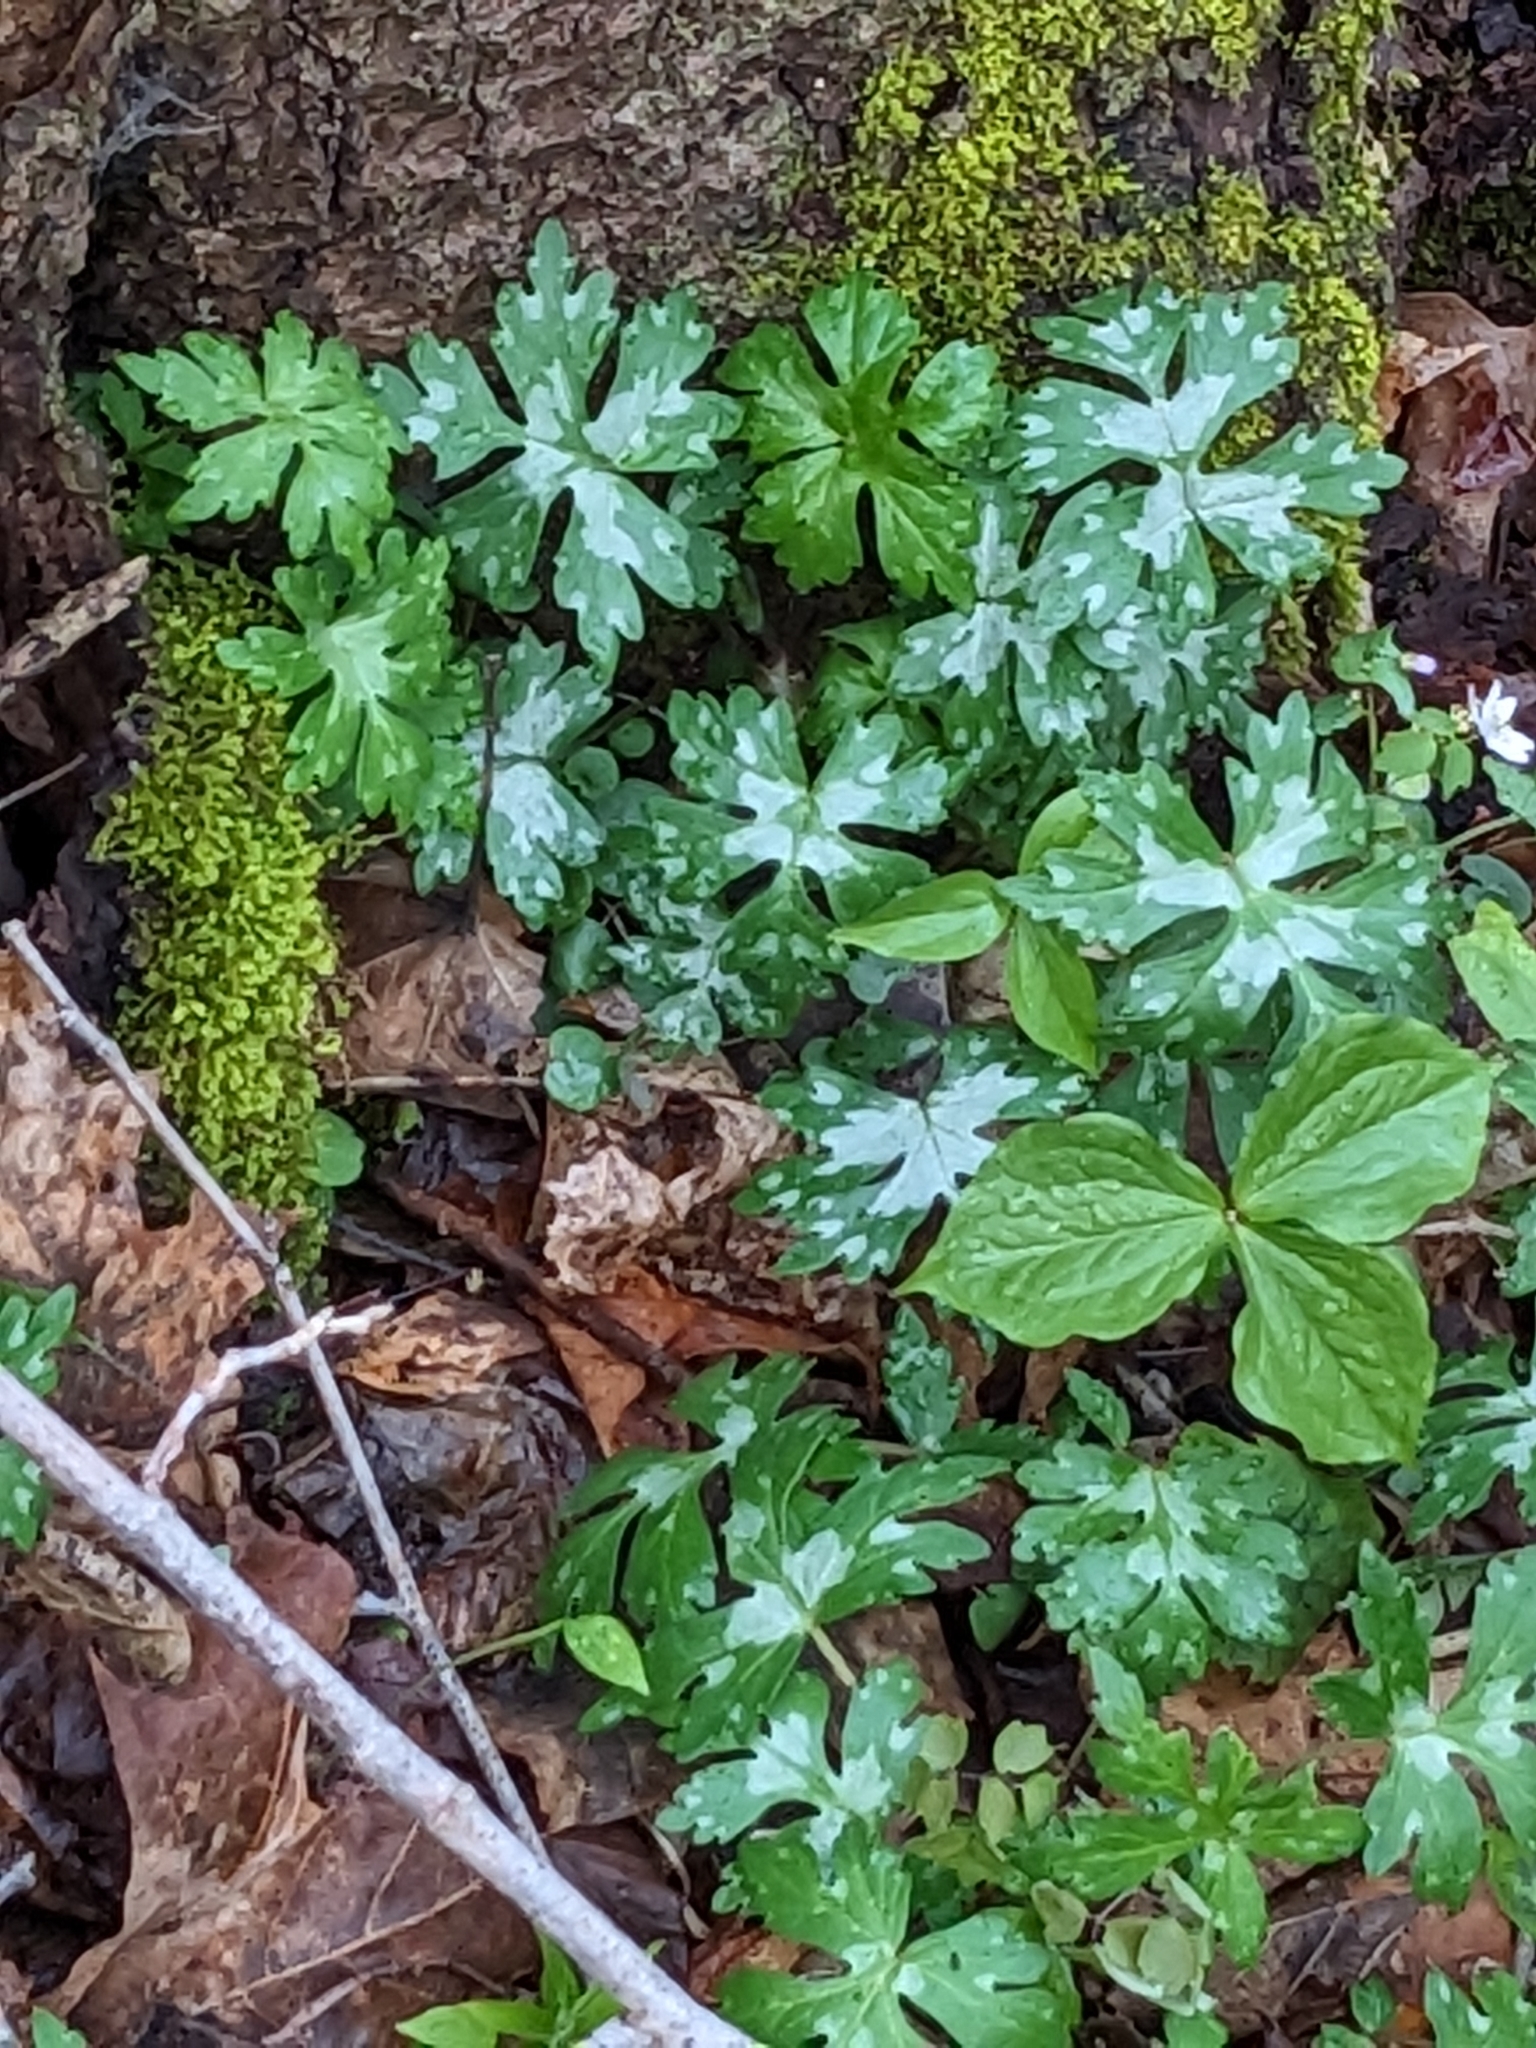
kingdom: Plantae
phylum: Tracheophyta
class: Magnoliopsida
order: Boraginales
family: Hydrophyllaceae
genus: Hydrophyllum
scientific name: Hydrophyllum virginianum
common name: Virginia waterleaf
